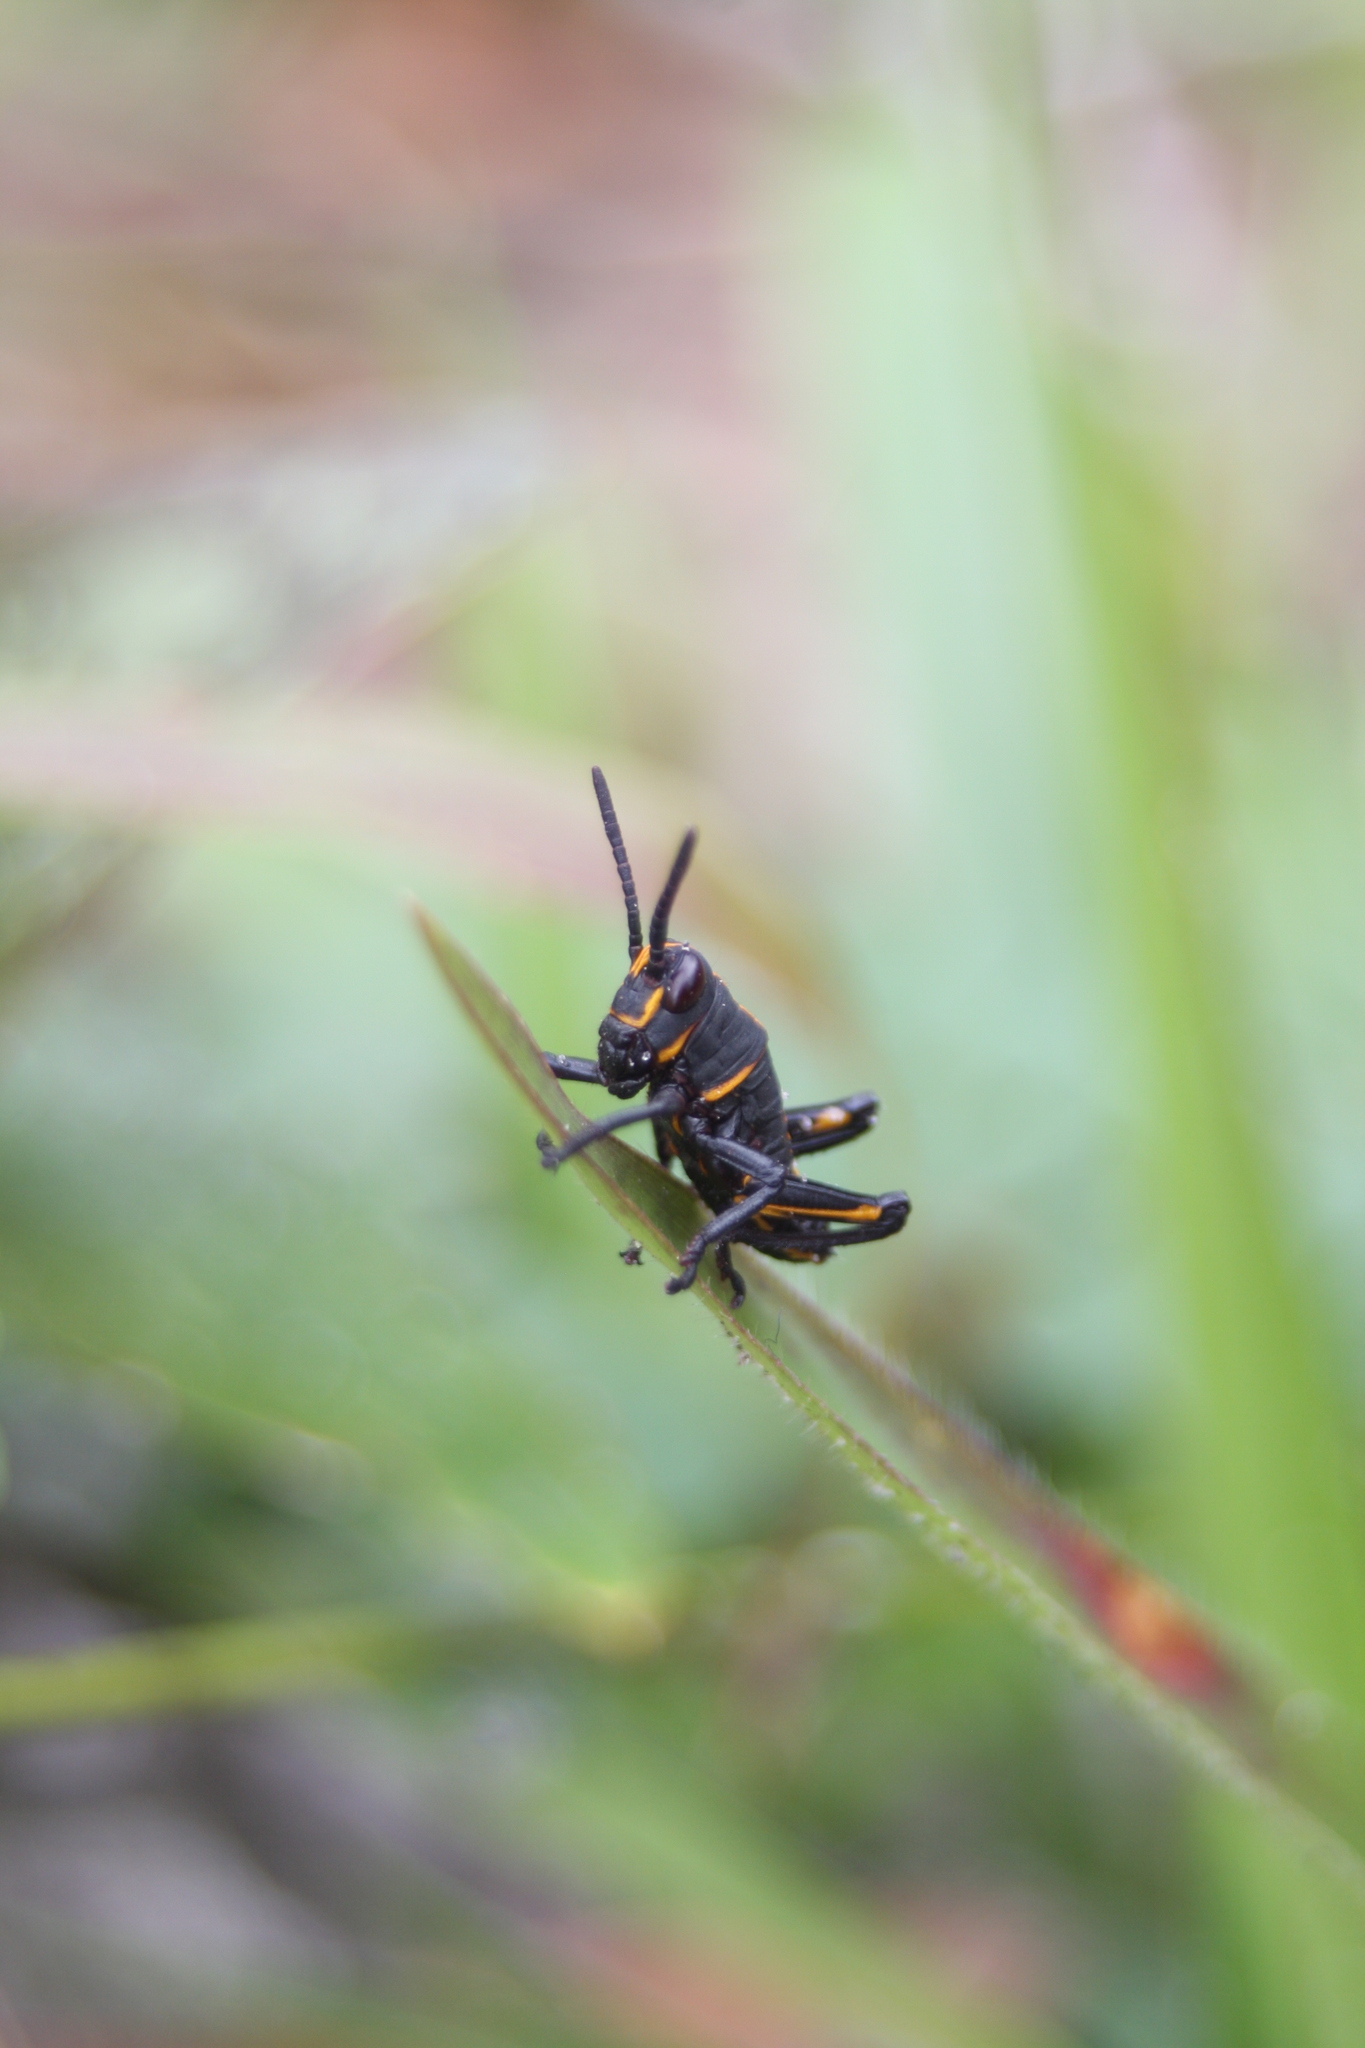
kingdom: Animalia
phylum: Arthropoda
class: Insecta
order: Orthoptera
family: Romaleidae
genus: Romalea
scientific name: Romalea microptera
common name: Eastern lubber grasshopper
